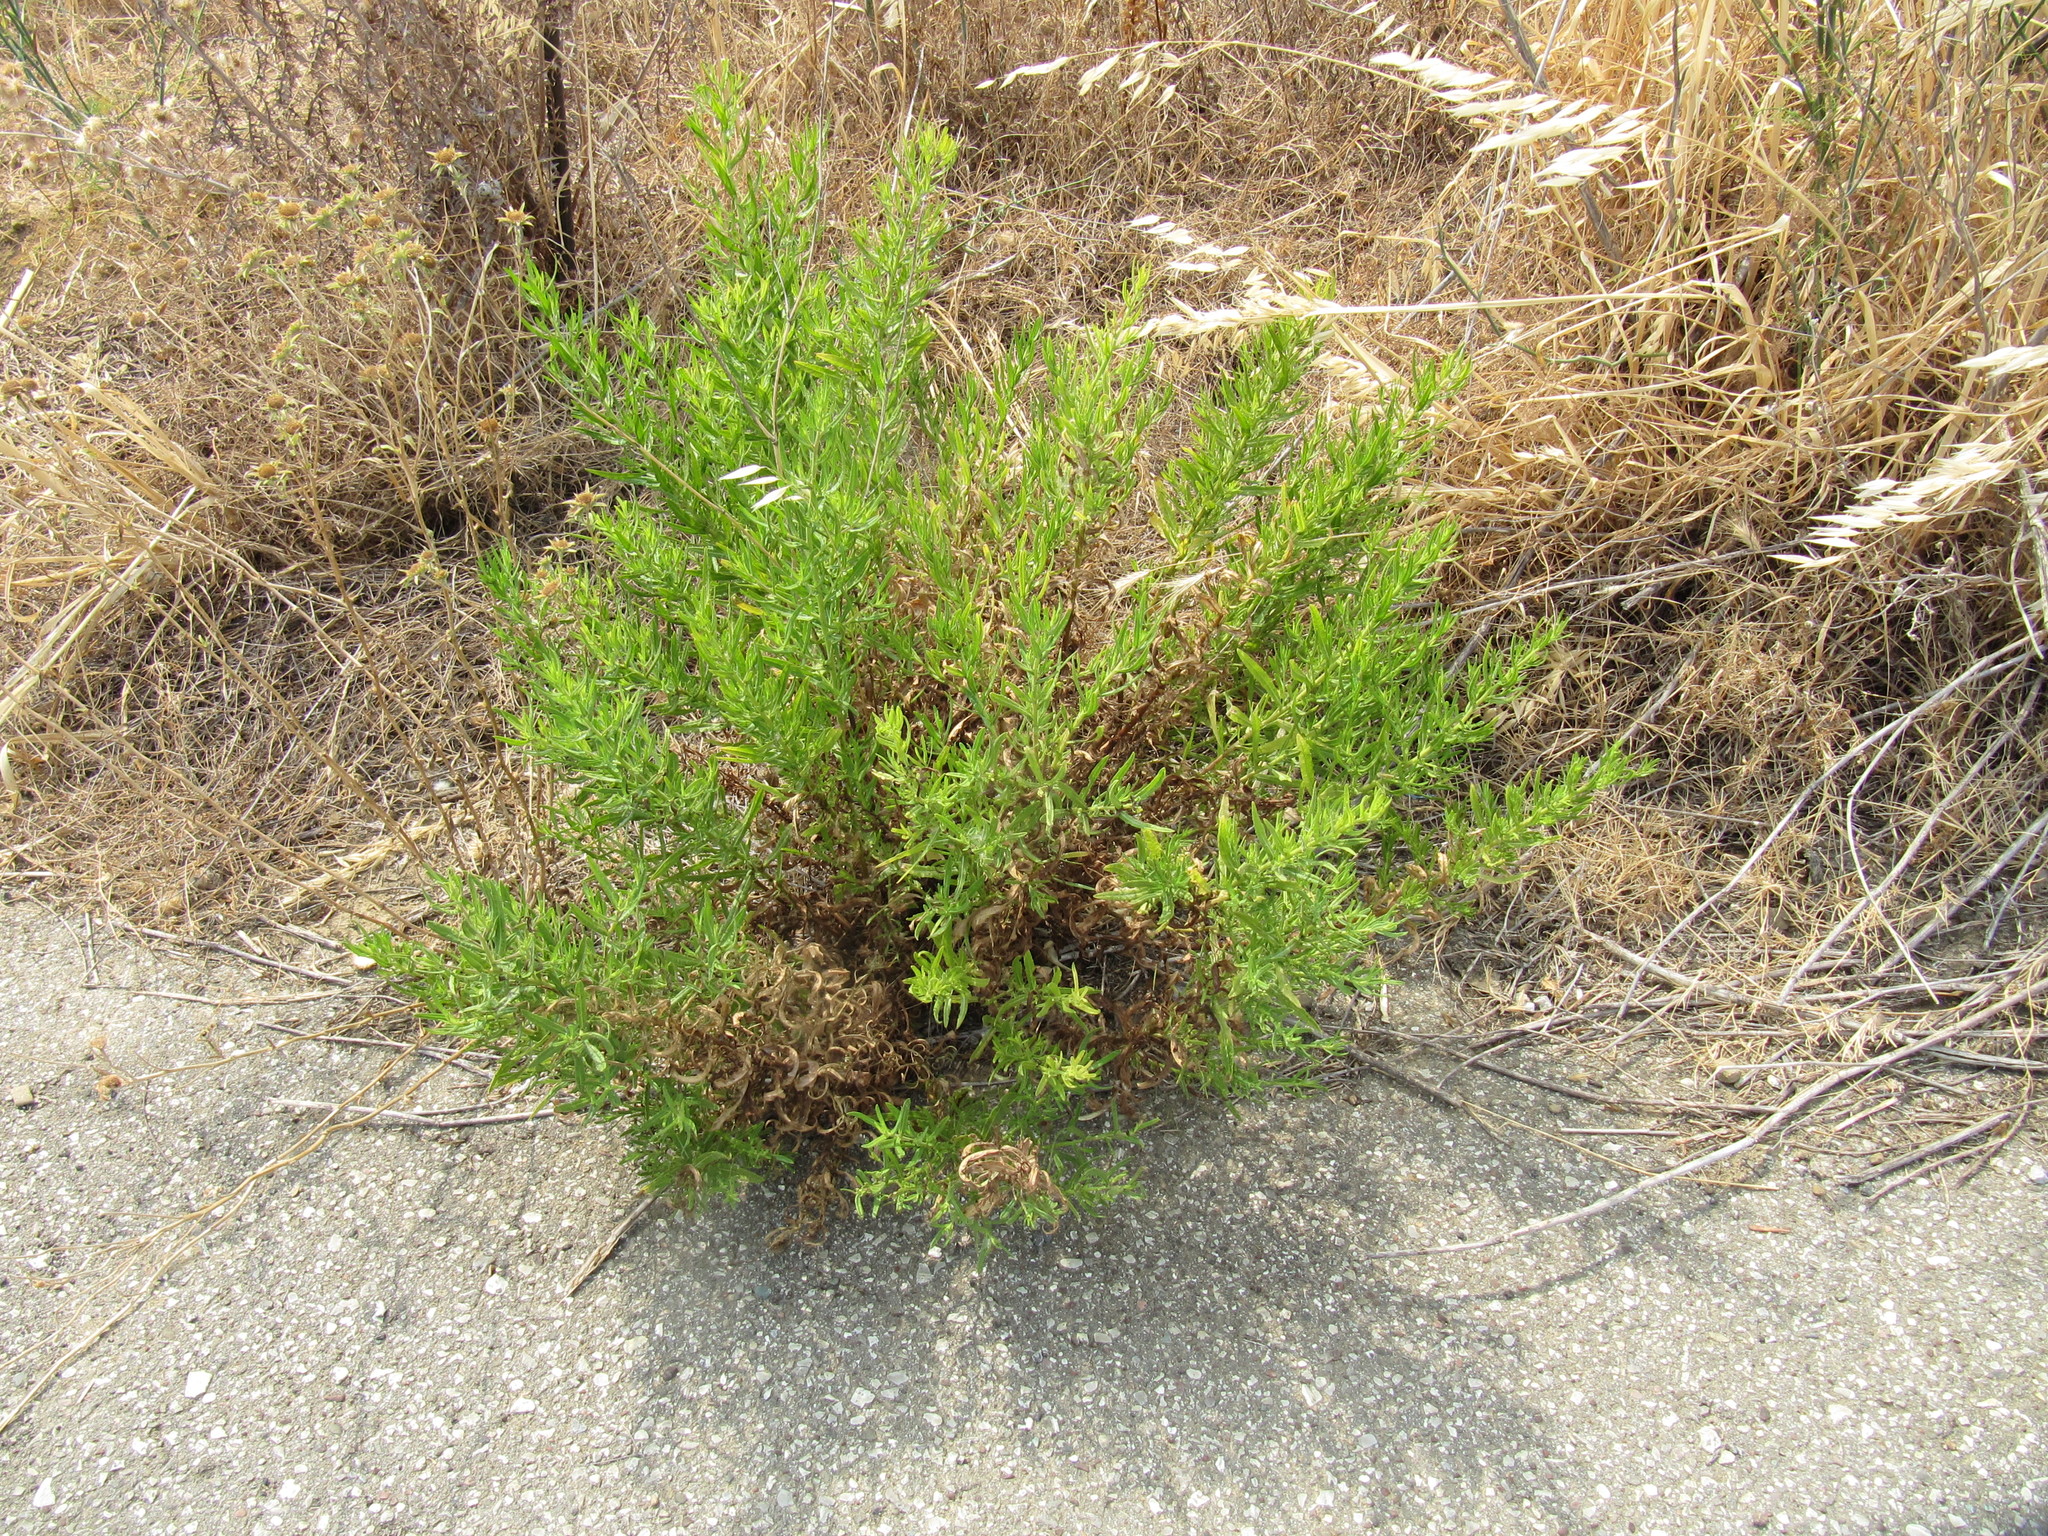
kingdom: Plantae
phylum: Tracheophyta
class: Magnoliopsida
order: Asterales
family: Asteraceae
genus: Dittrichia
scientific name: Dittrichia viscosa
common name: Woody fleabane
